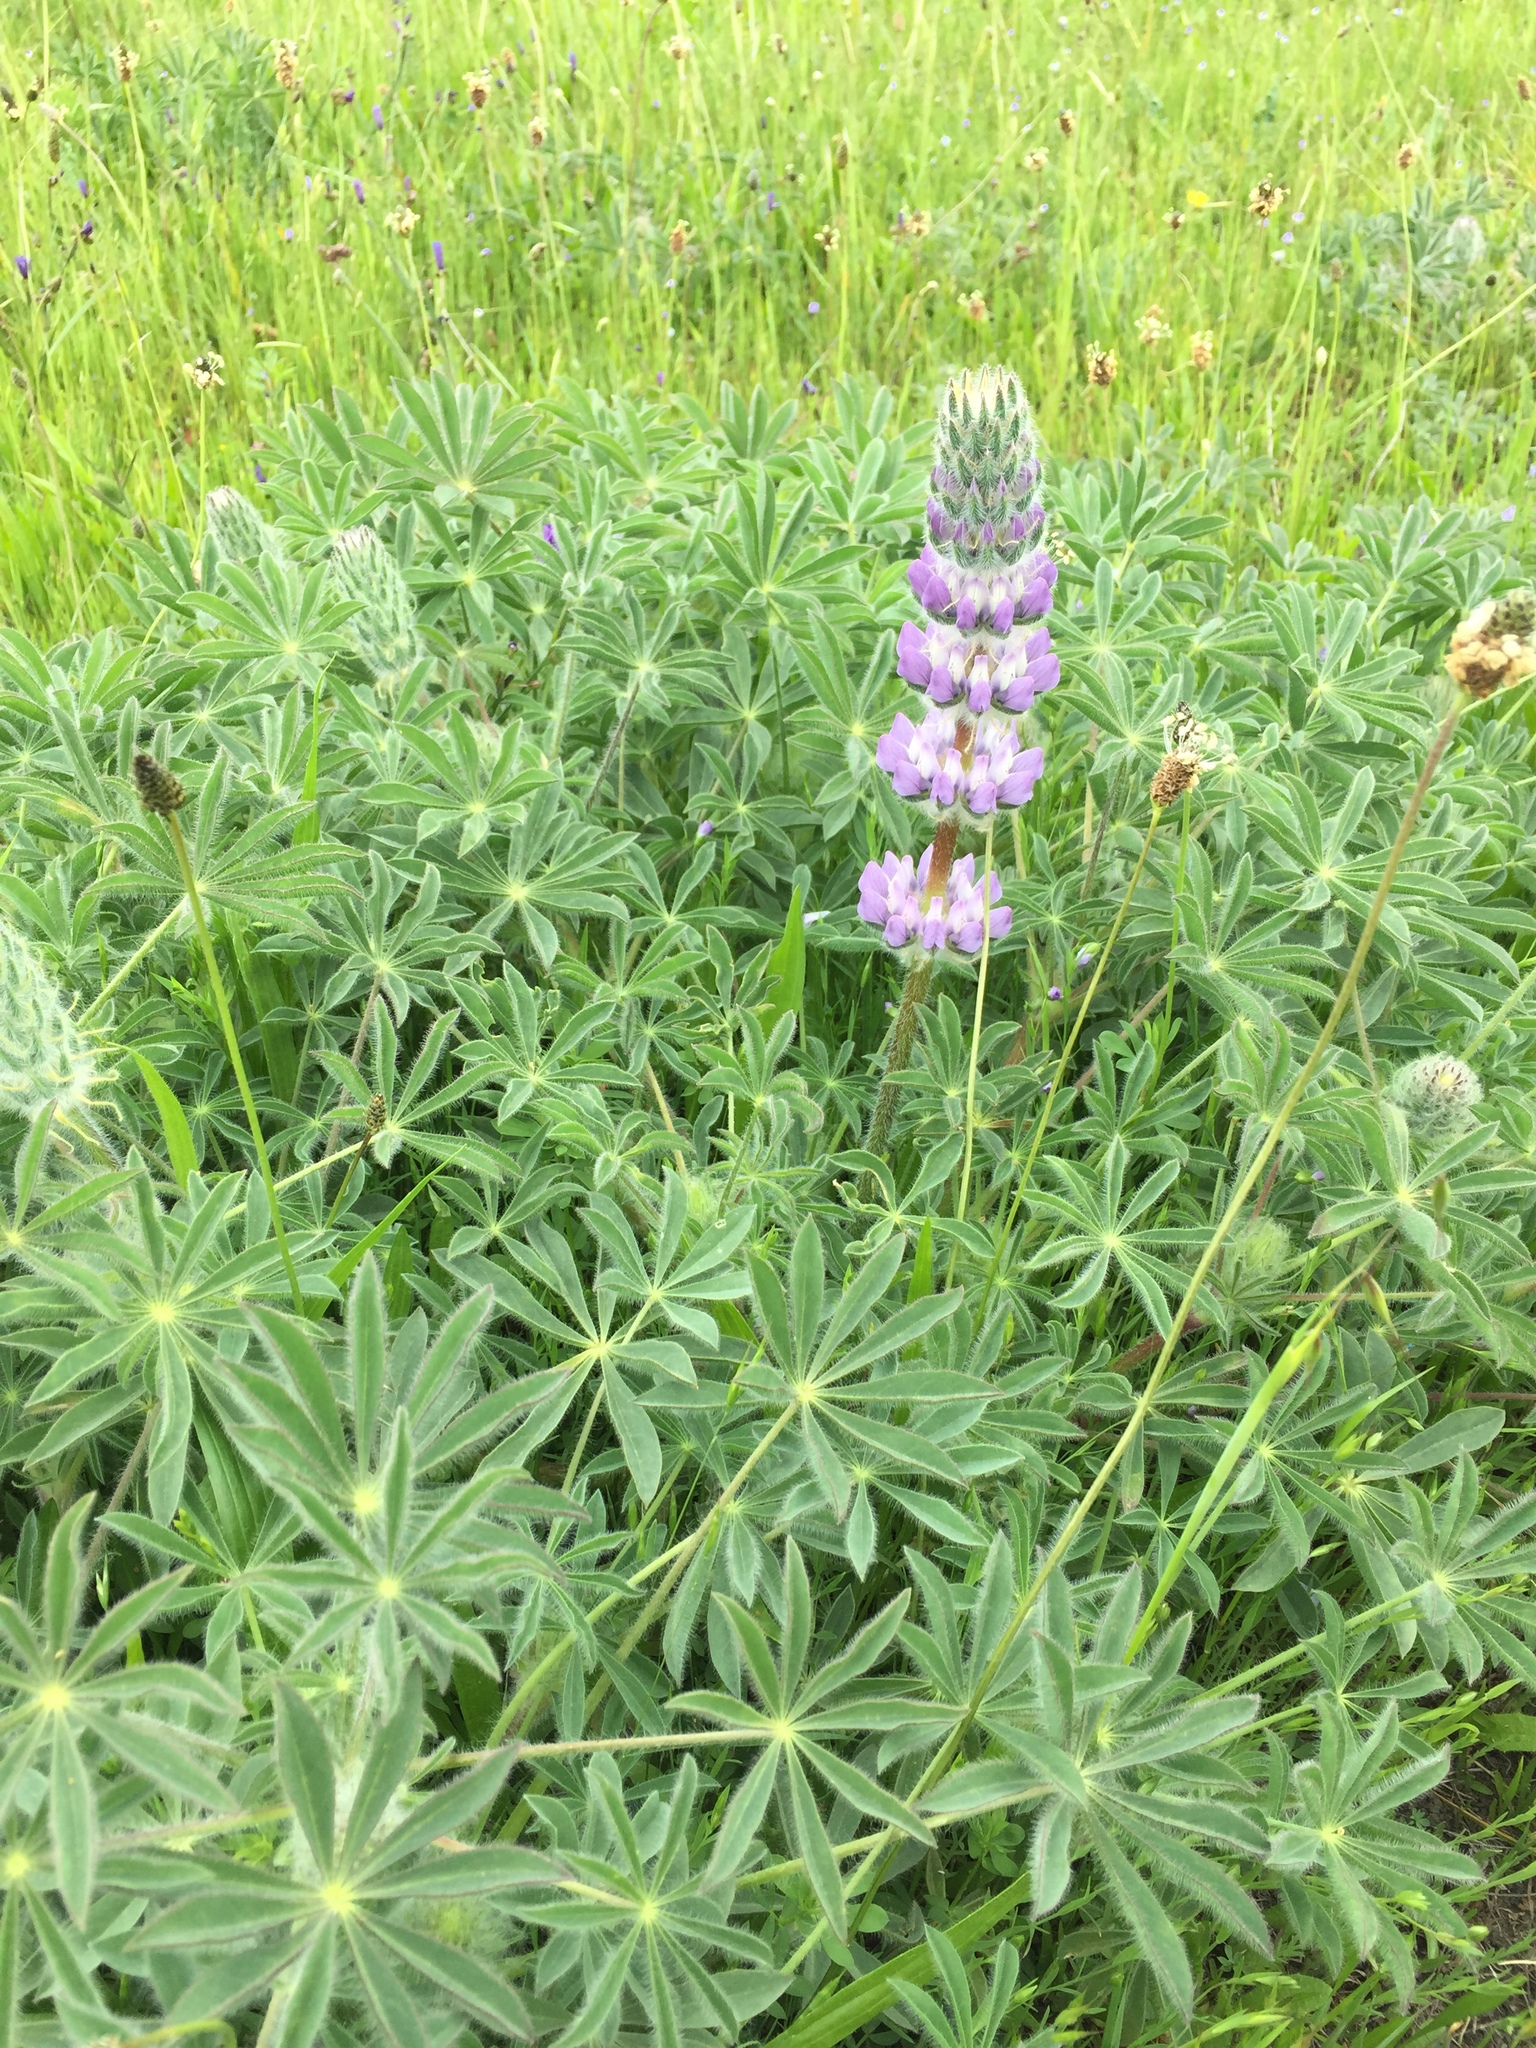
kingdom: Plantae
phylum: Tracheophyta
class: Magnoliopsida
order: Fabales
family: Fabaceae
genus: Lupinus
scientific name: Lupinus microcarpus
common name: Chick lupine
